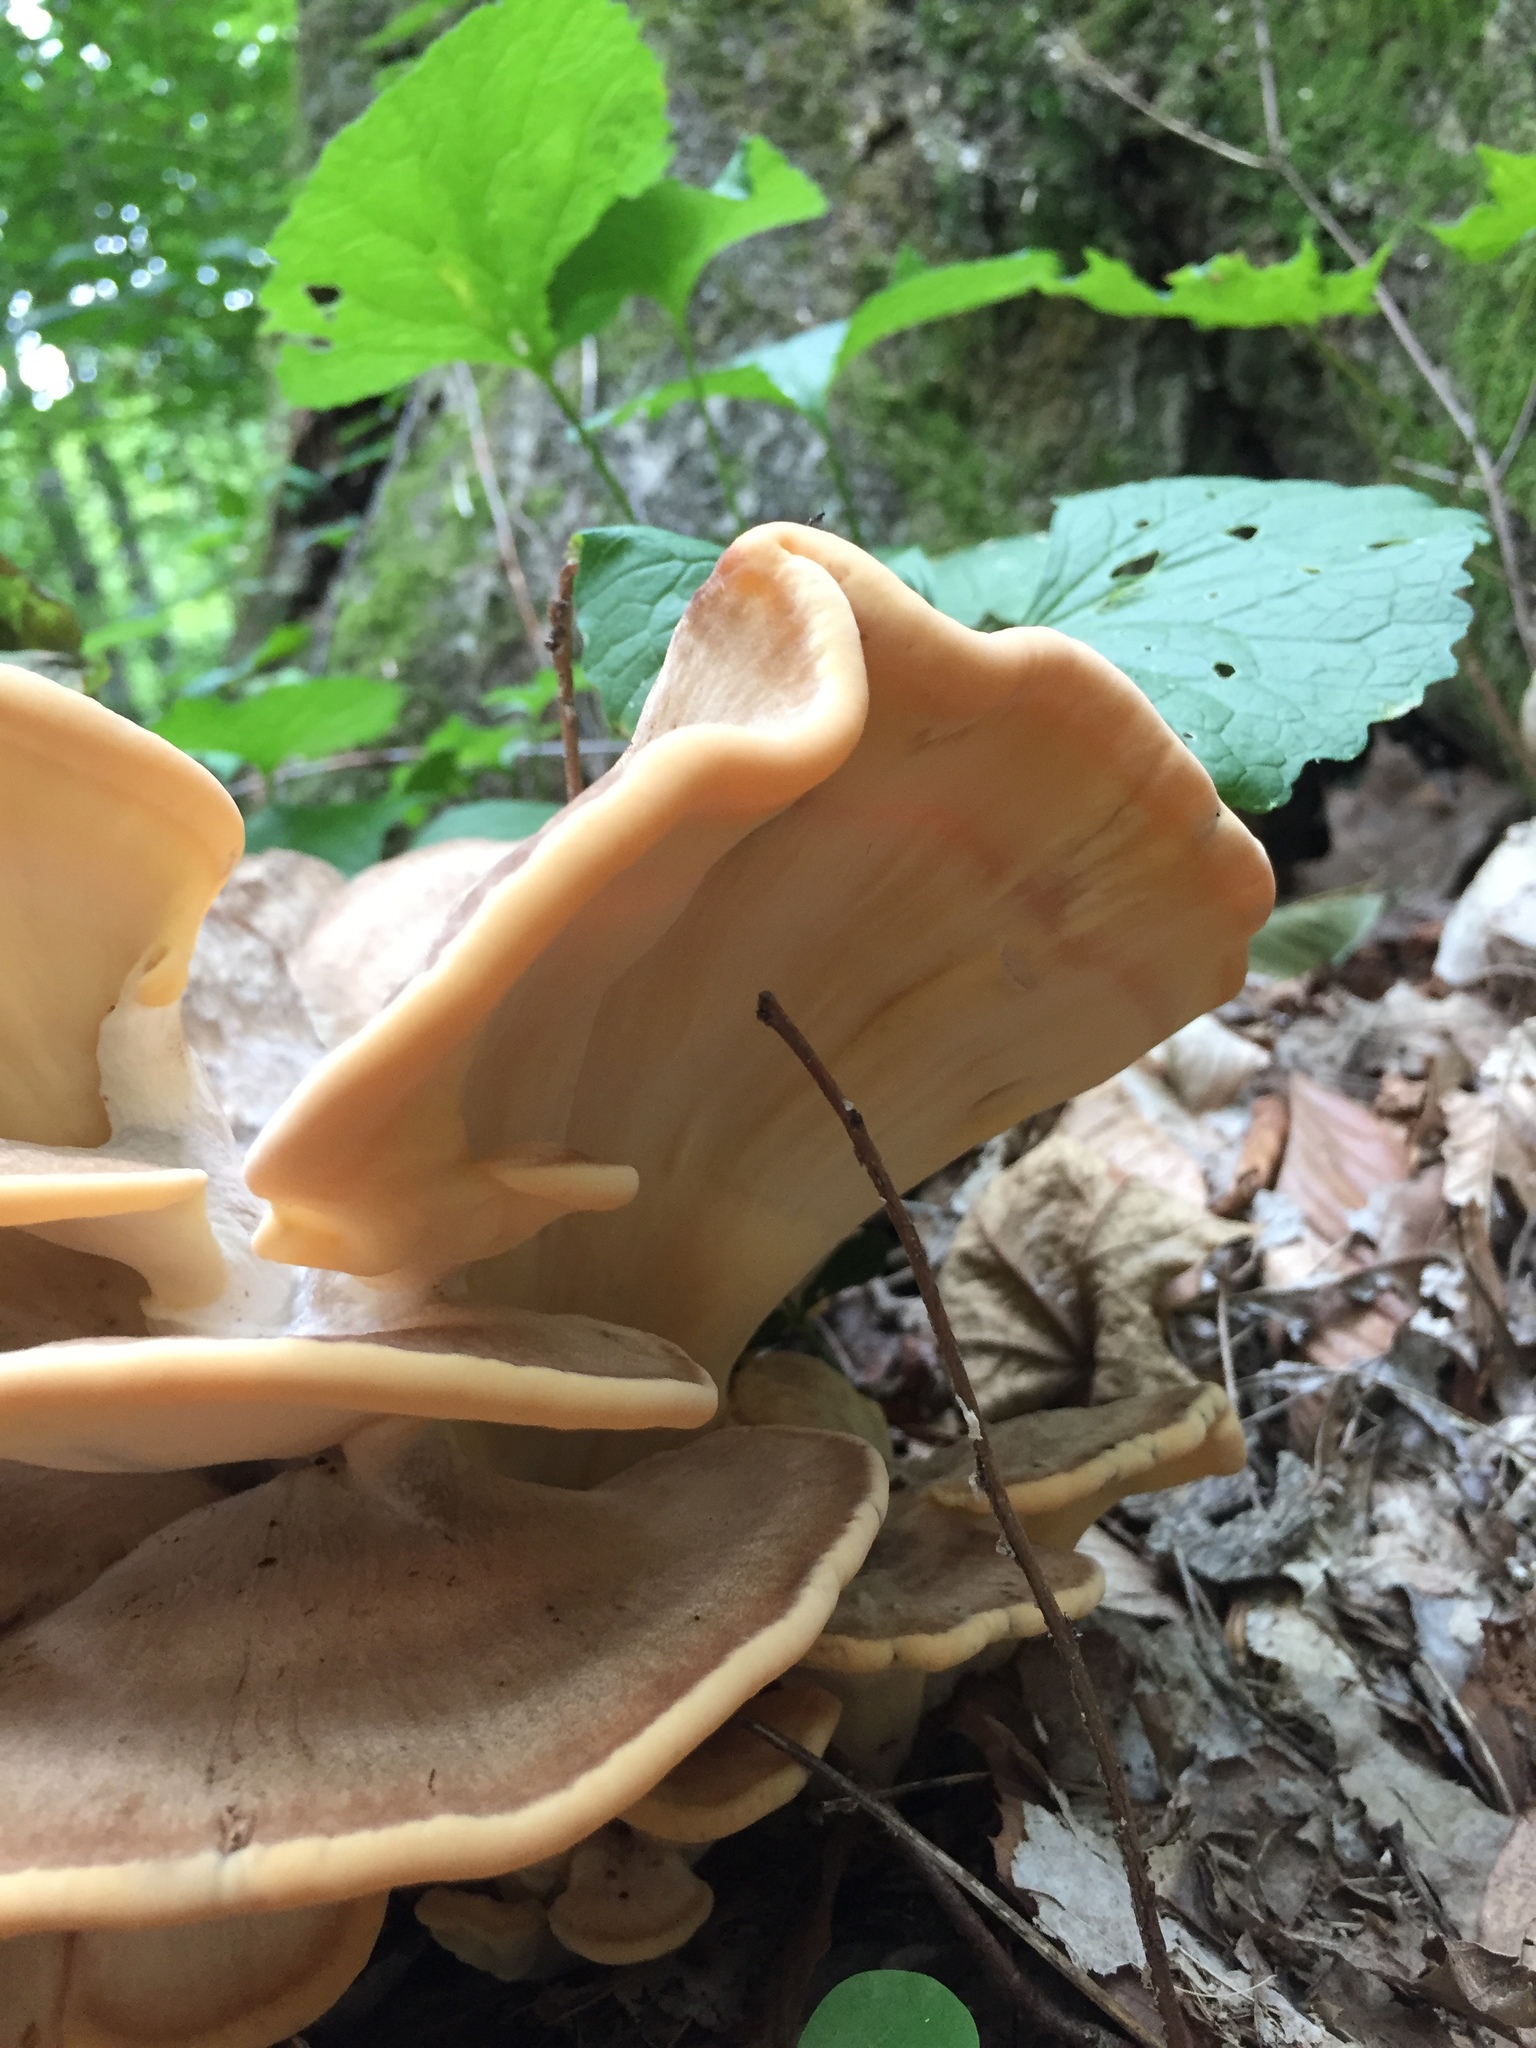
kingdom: Fungi
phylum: Basidiomycota
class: Agaricomycetes
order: Polyporales
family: Meripilaceae
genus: Meripilus
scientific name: Meripilus sumstinei
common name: Black-staining polypore
